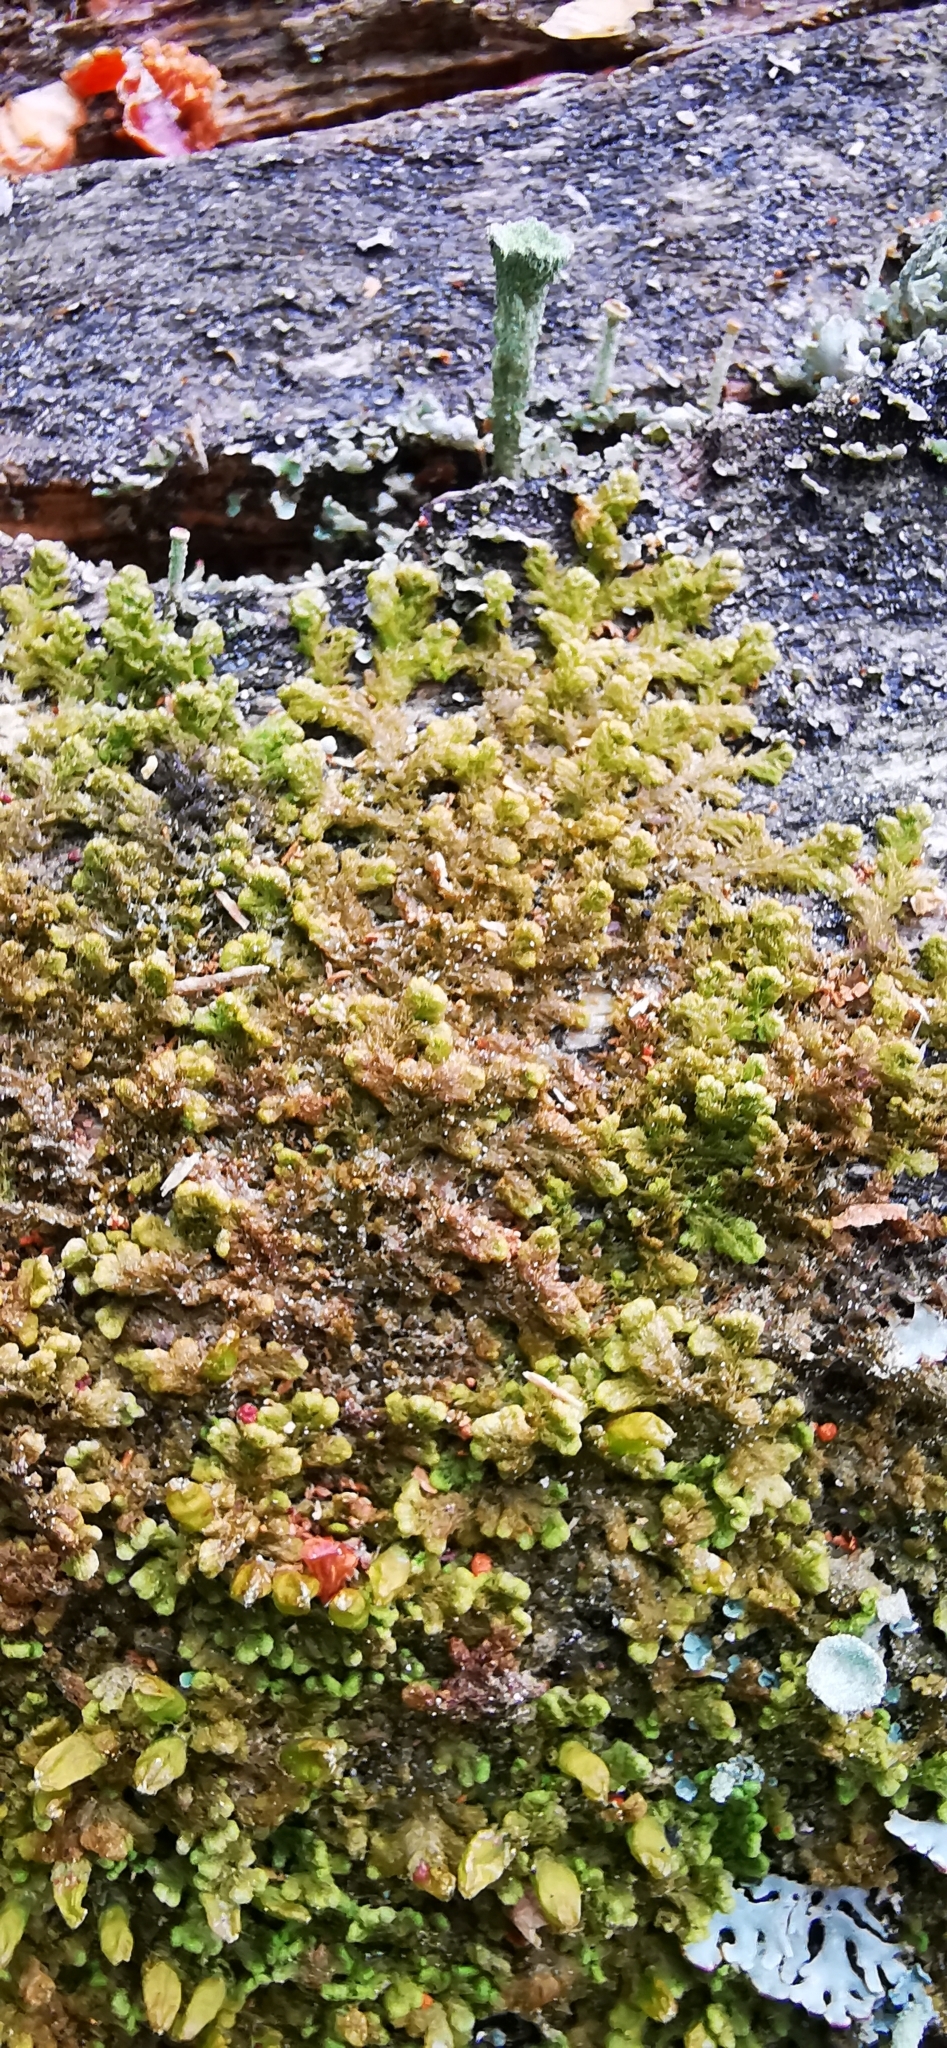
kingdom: Plantae
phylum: Marchantiophyta
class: Jungermanniopsida
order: Ptilidiales
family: Ptilidiaceae
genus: Ptilidium
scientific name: Ptilidium pulcherrimum
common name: Tree fringewort
